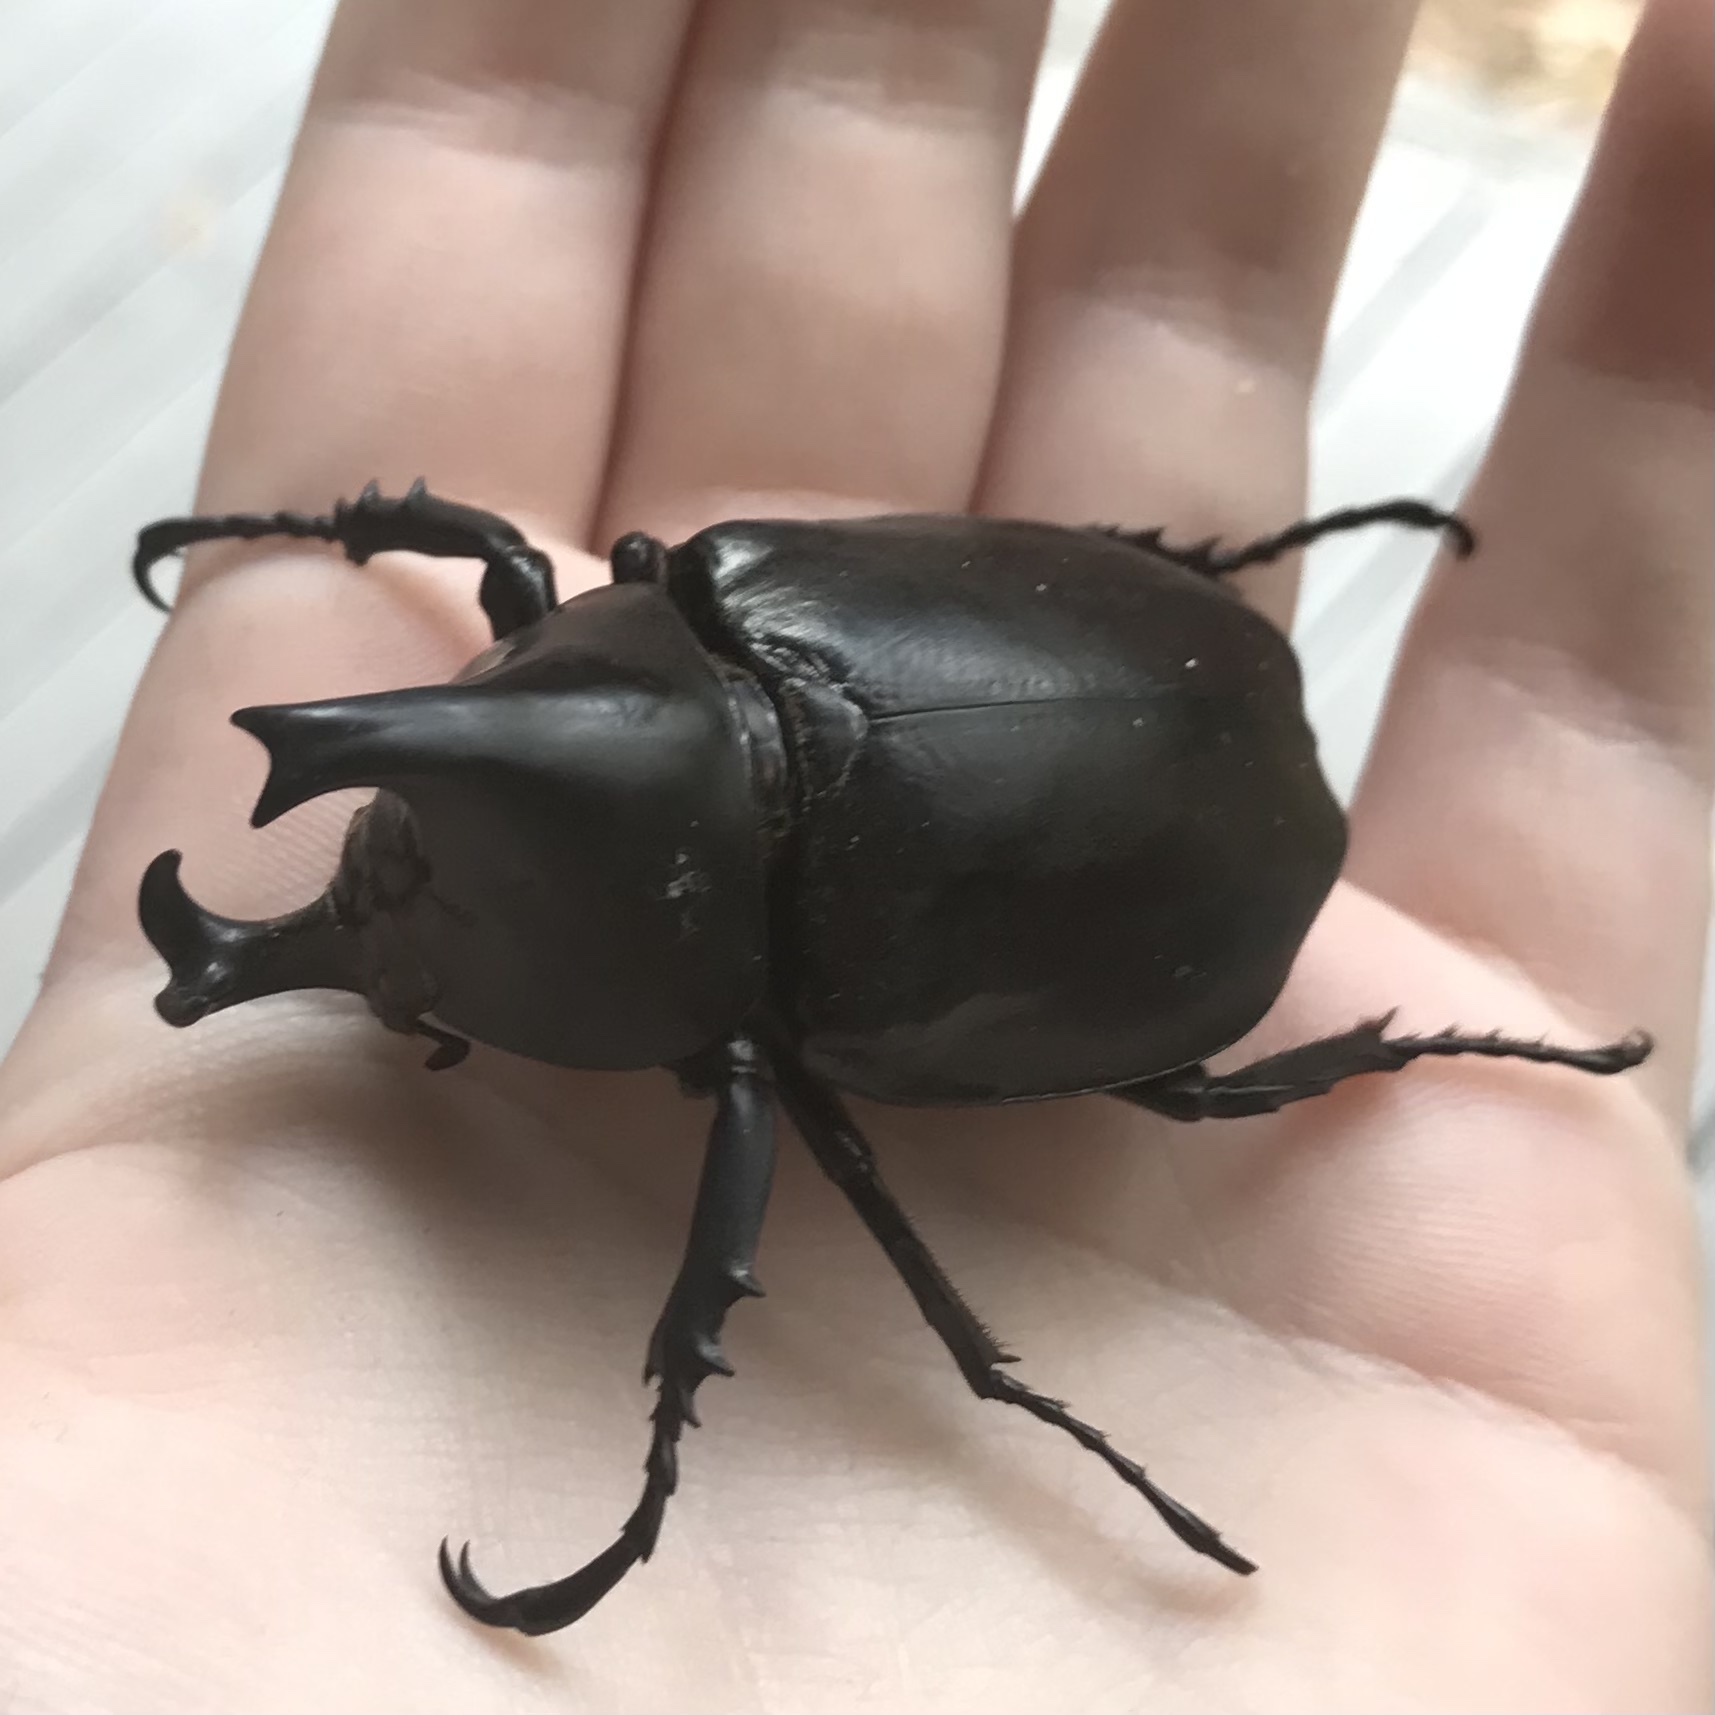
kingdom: Animalia
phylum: Arthropoda
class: Insecta
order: Coleoptera
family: Scarabaeidae
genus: Xylotrupes
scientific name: Xylotrupes australicus
